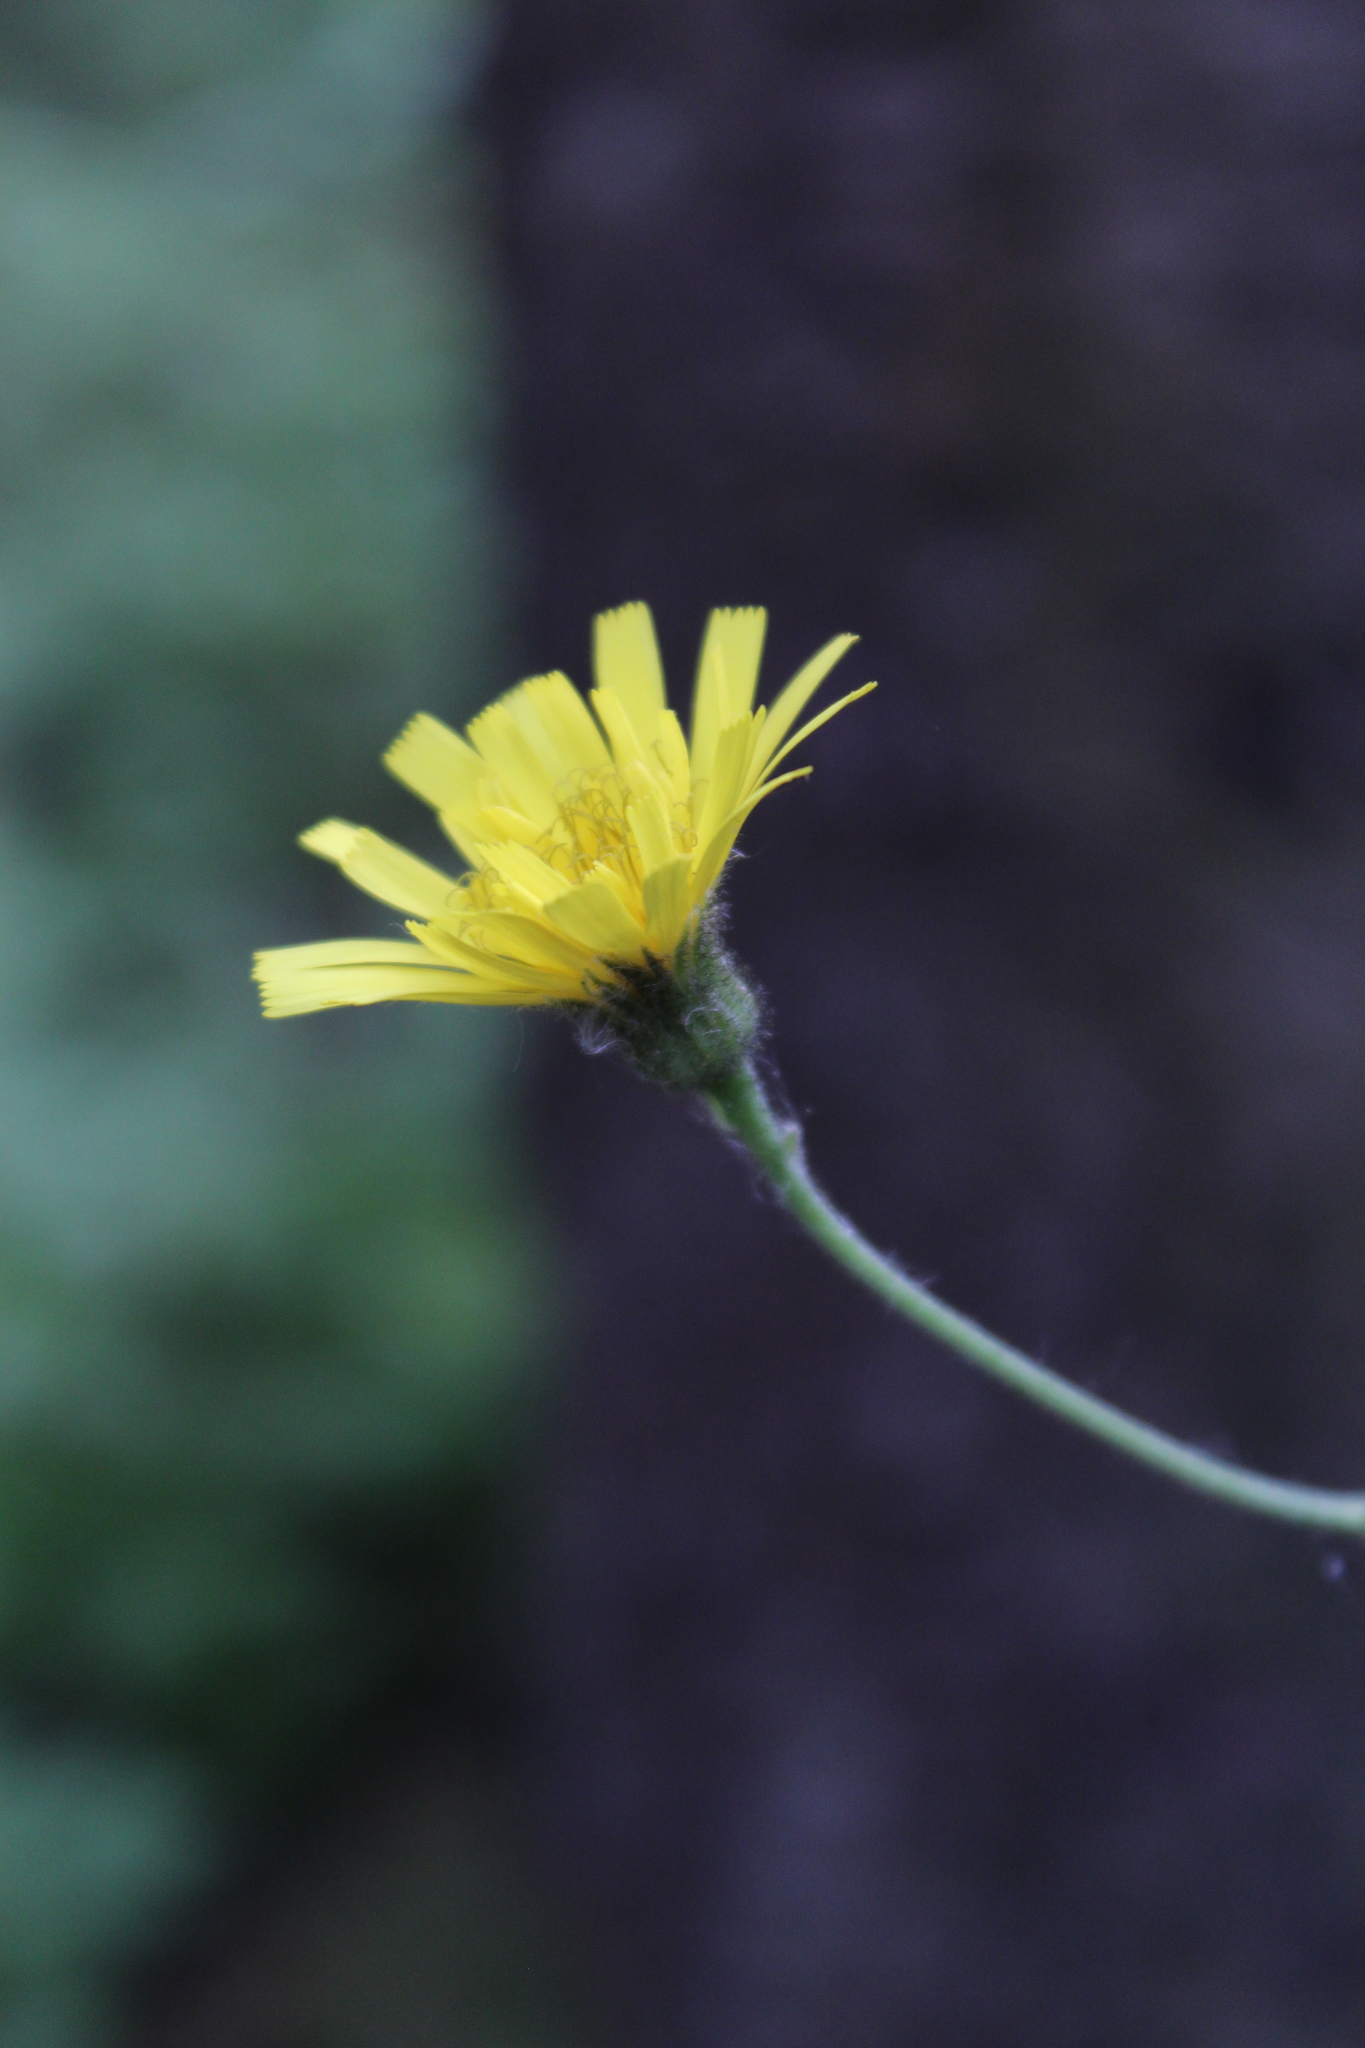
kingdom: Plantae
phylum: Tracheophyta
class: Magnoliopsida
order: Asterales
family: Asteraceae
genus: Hieracium
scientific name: Hieracium murorum
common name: Wall hawkweed
